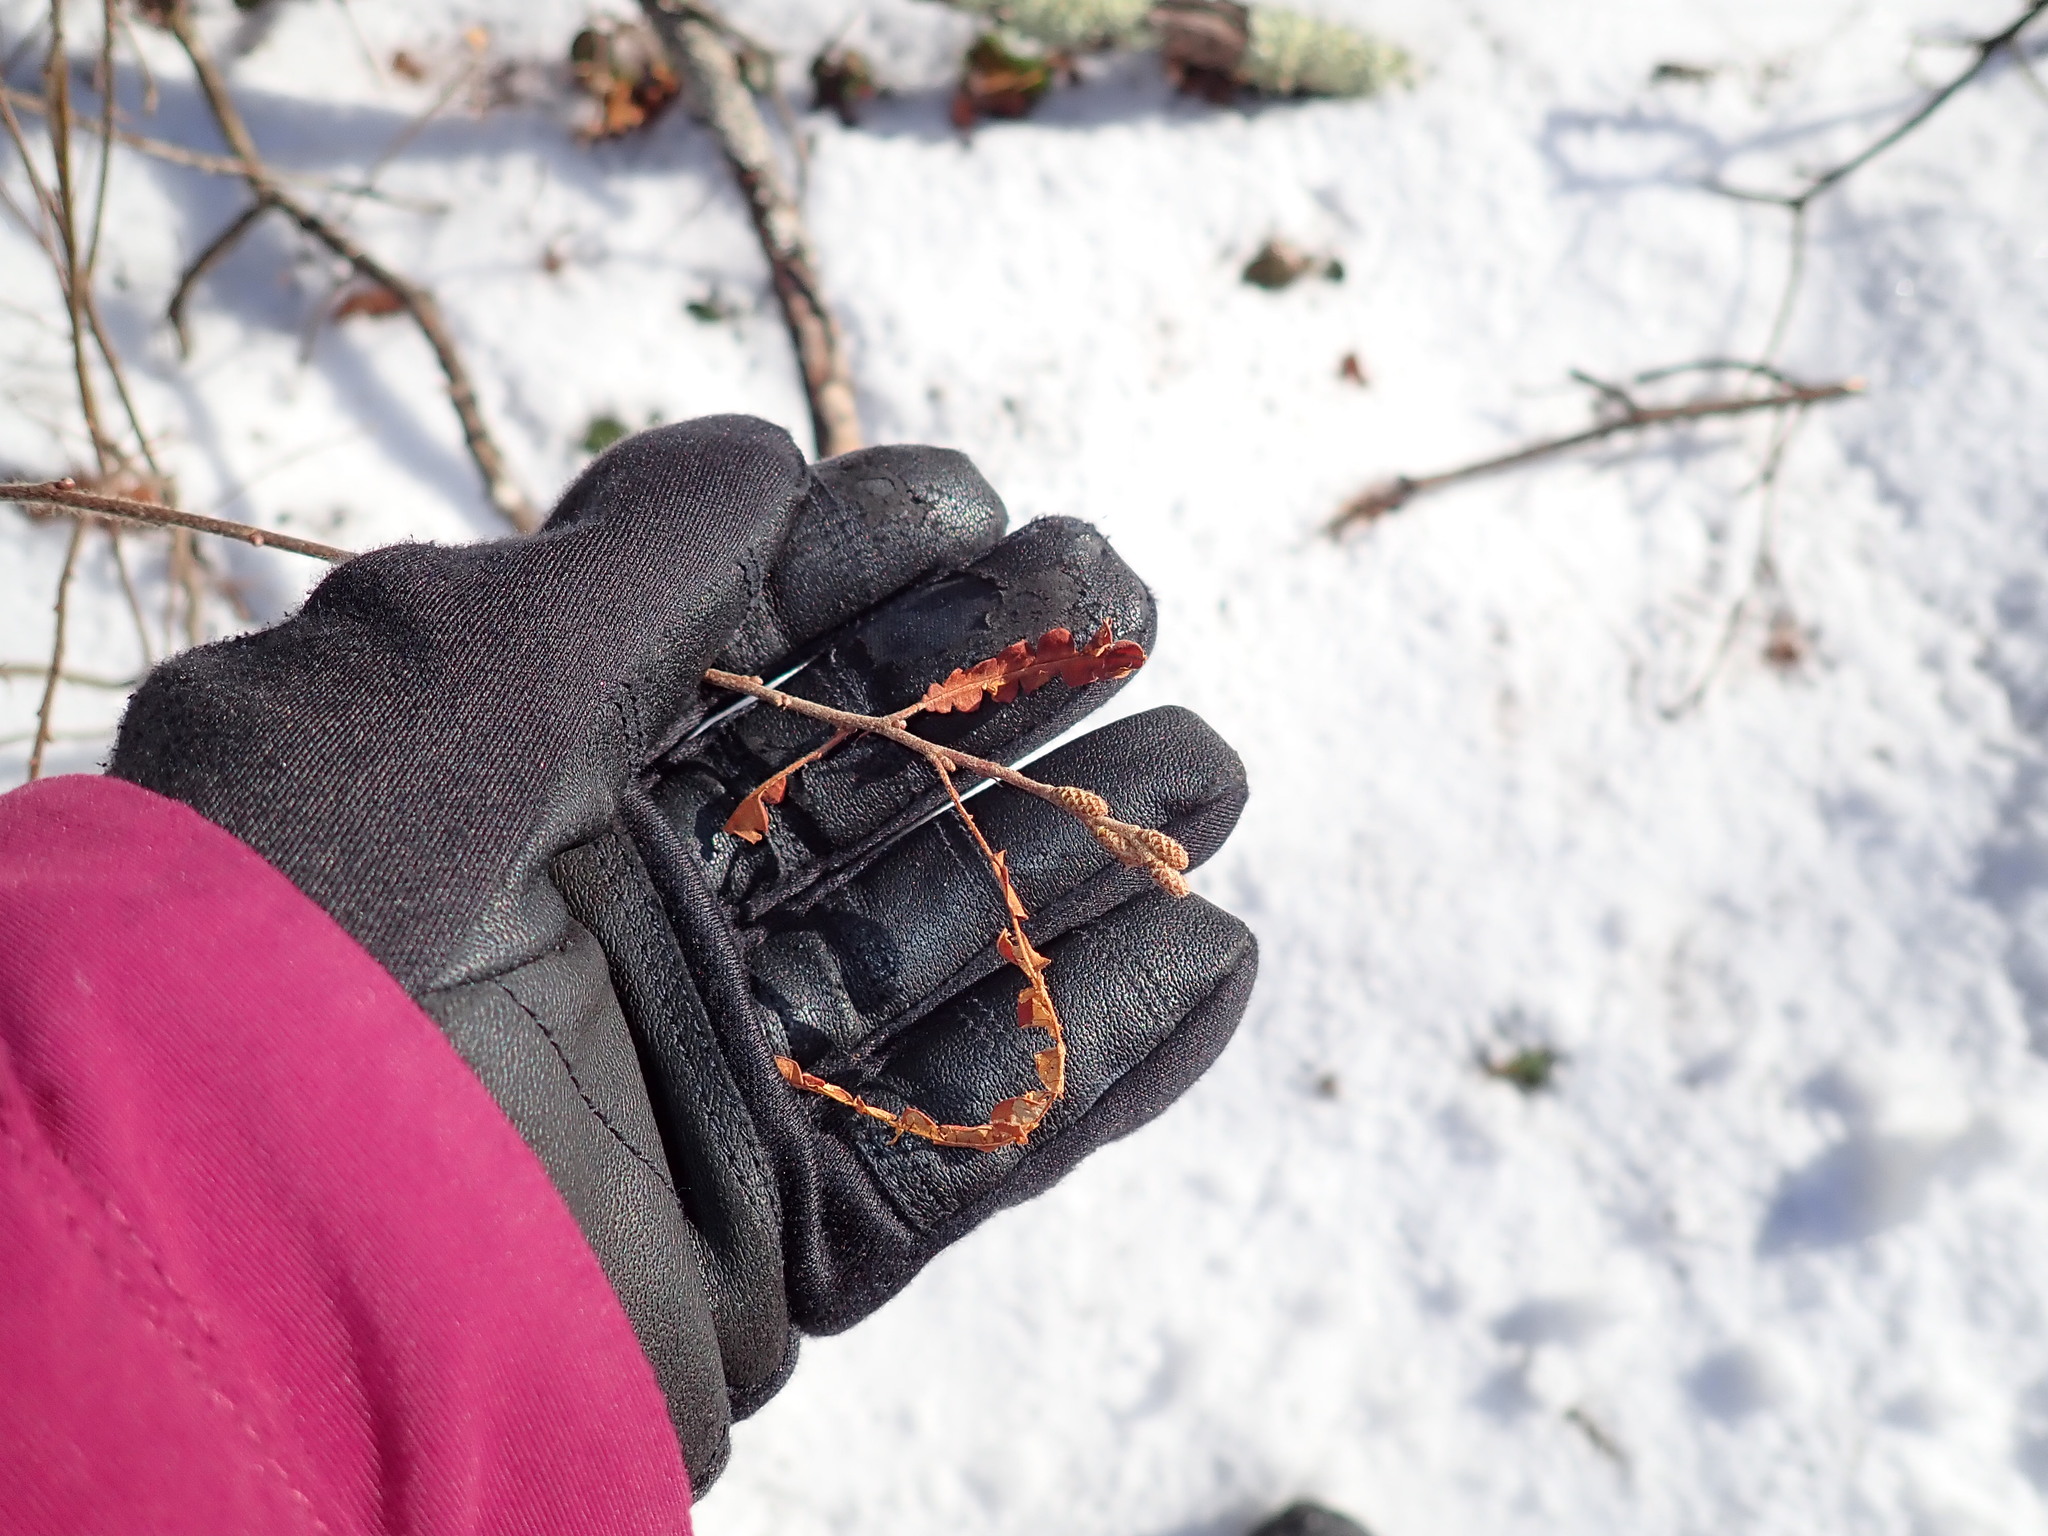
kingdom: Plantae
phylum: Tracheophyta
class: Magnoliopsida
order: Fagales
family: Myricaceae
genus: Comptonia
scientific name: Comptonia peregrina
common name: Sweet-fern
